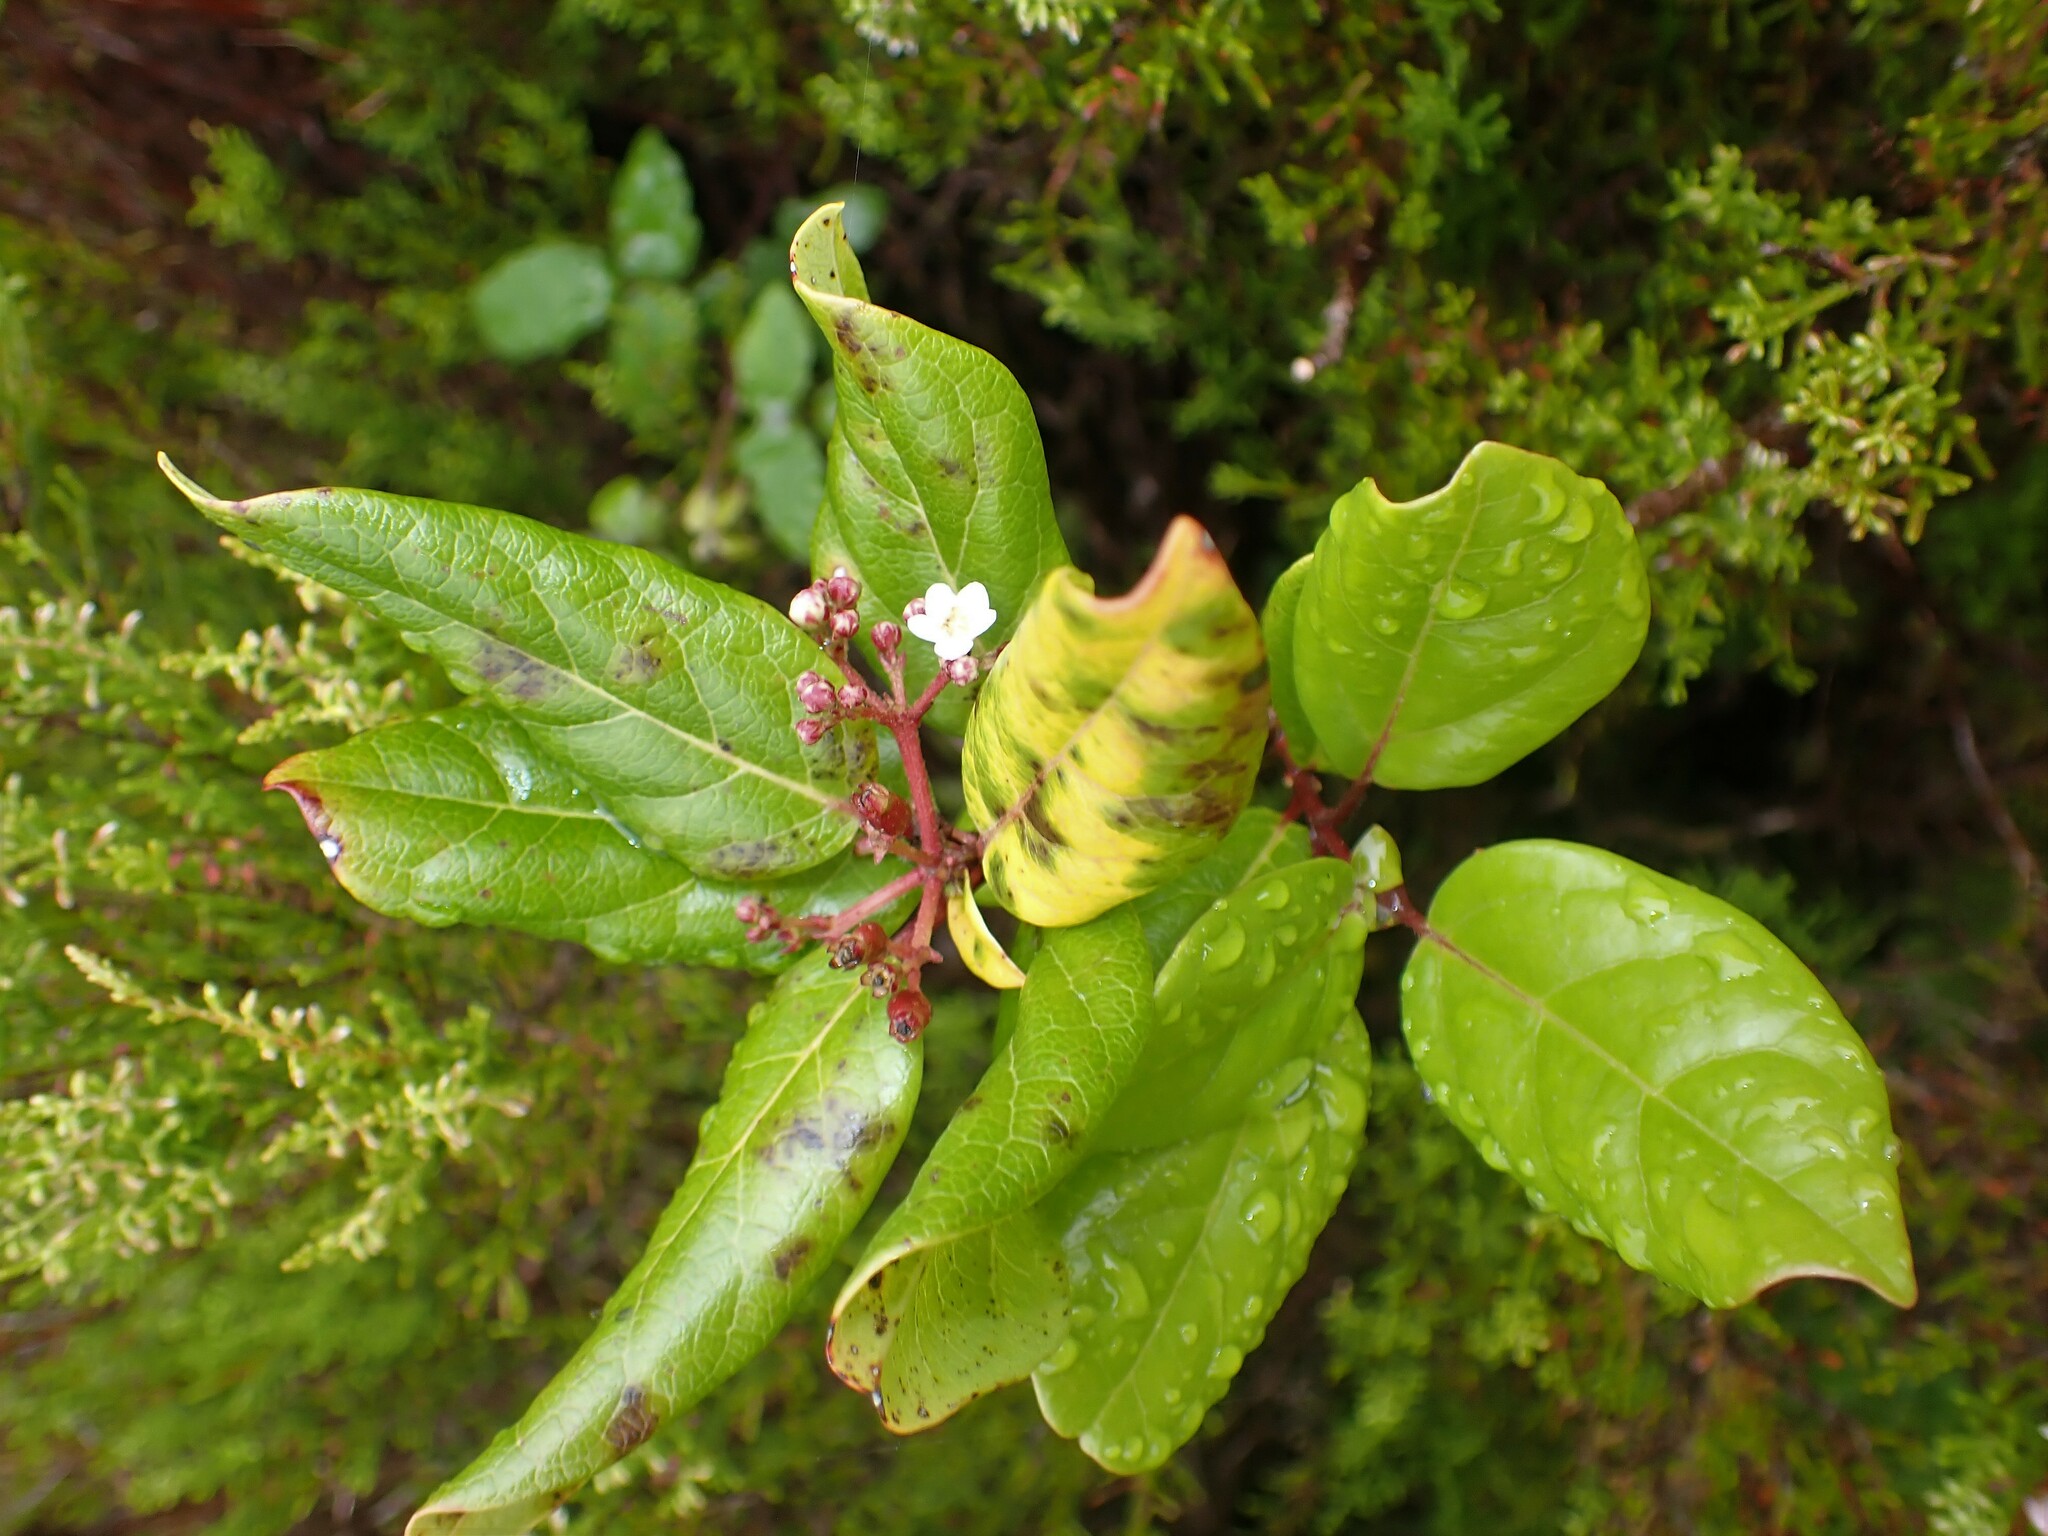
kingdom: Plantae
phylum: Tracheophyta
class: Magnoliopsida
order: Dipsacales
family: Viburnaceae
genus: Viburnum
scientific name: Viburnum treleasei
